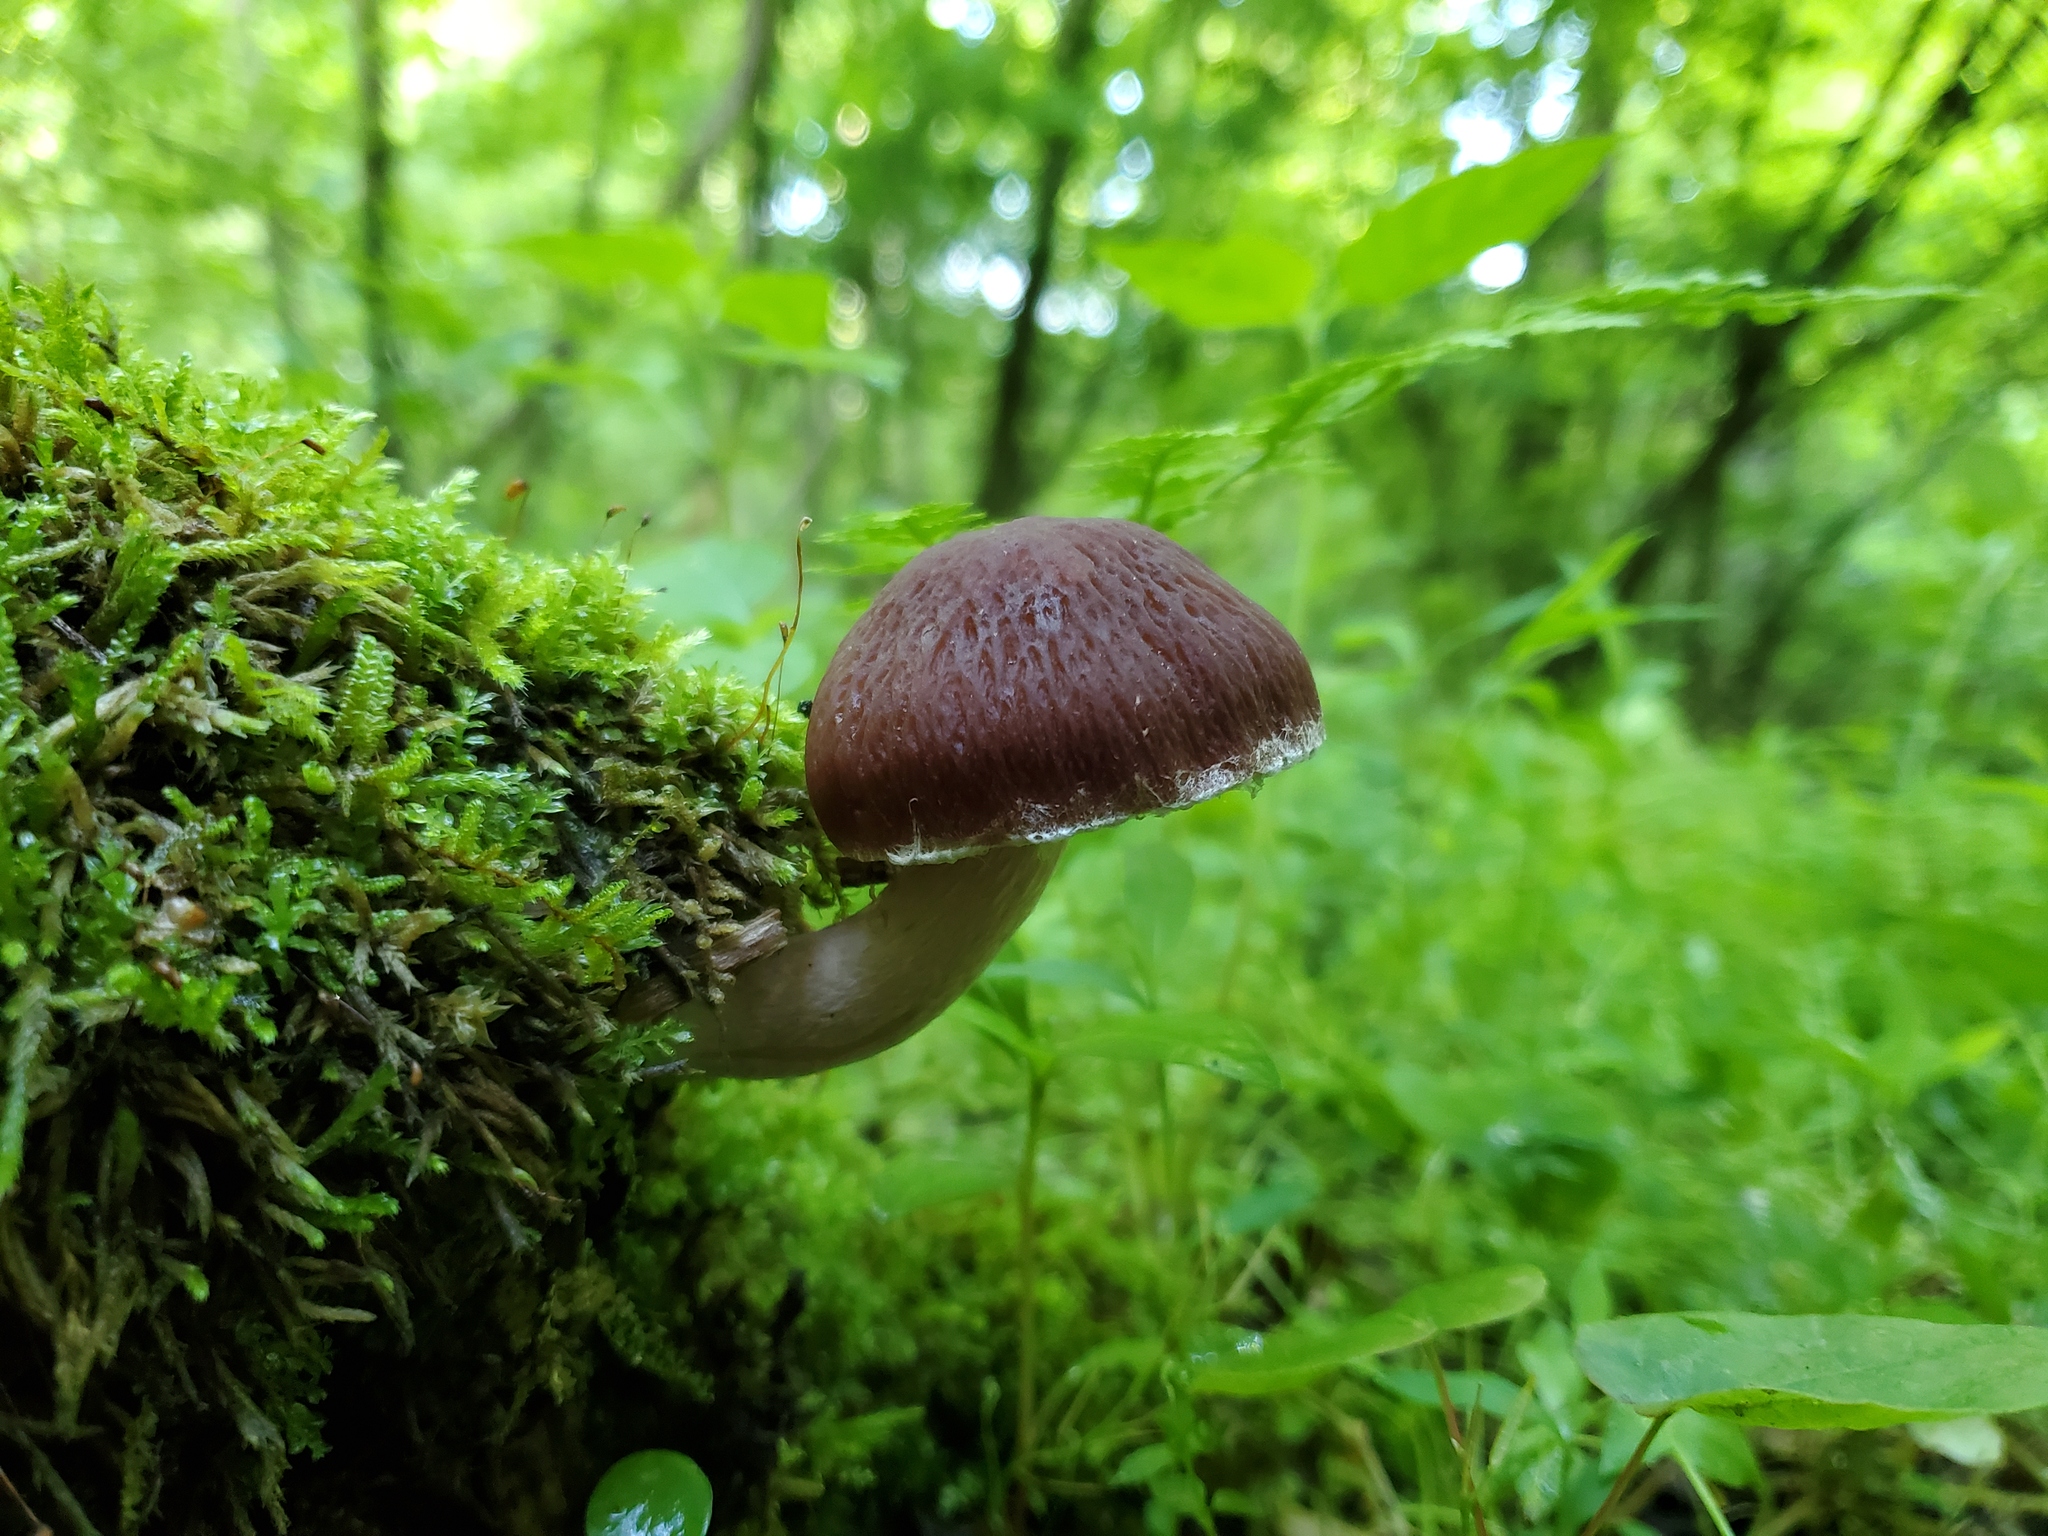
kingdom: Fungi
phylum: Basidiomycota
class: Agaricomycetes
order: Agaricales
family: Psathyrellaceae
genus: Typhrasa
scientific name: Typhrasa gossypina
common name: Wrinkled psathyrella
